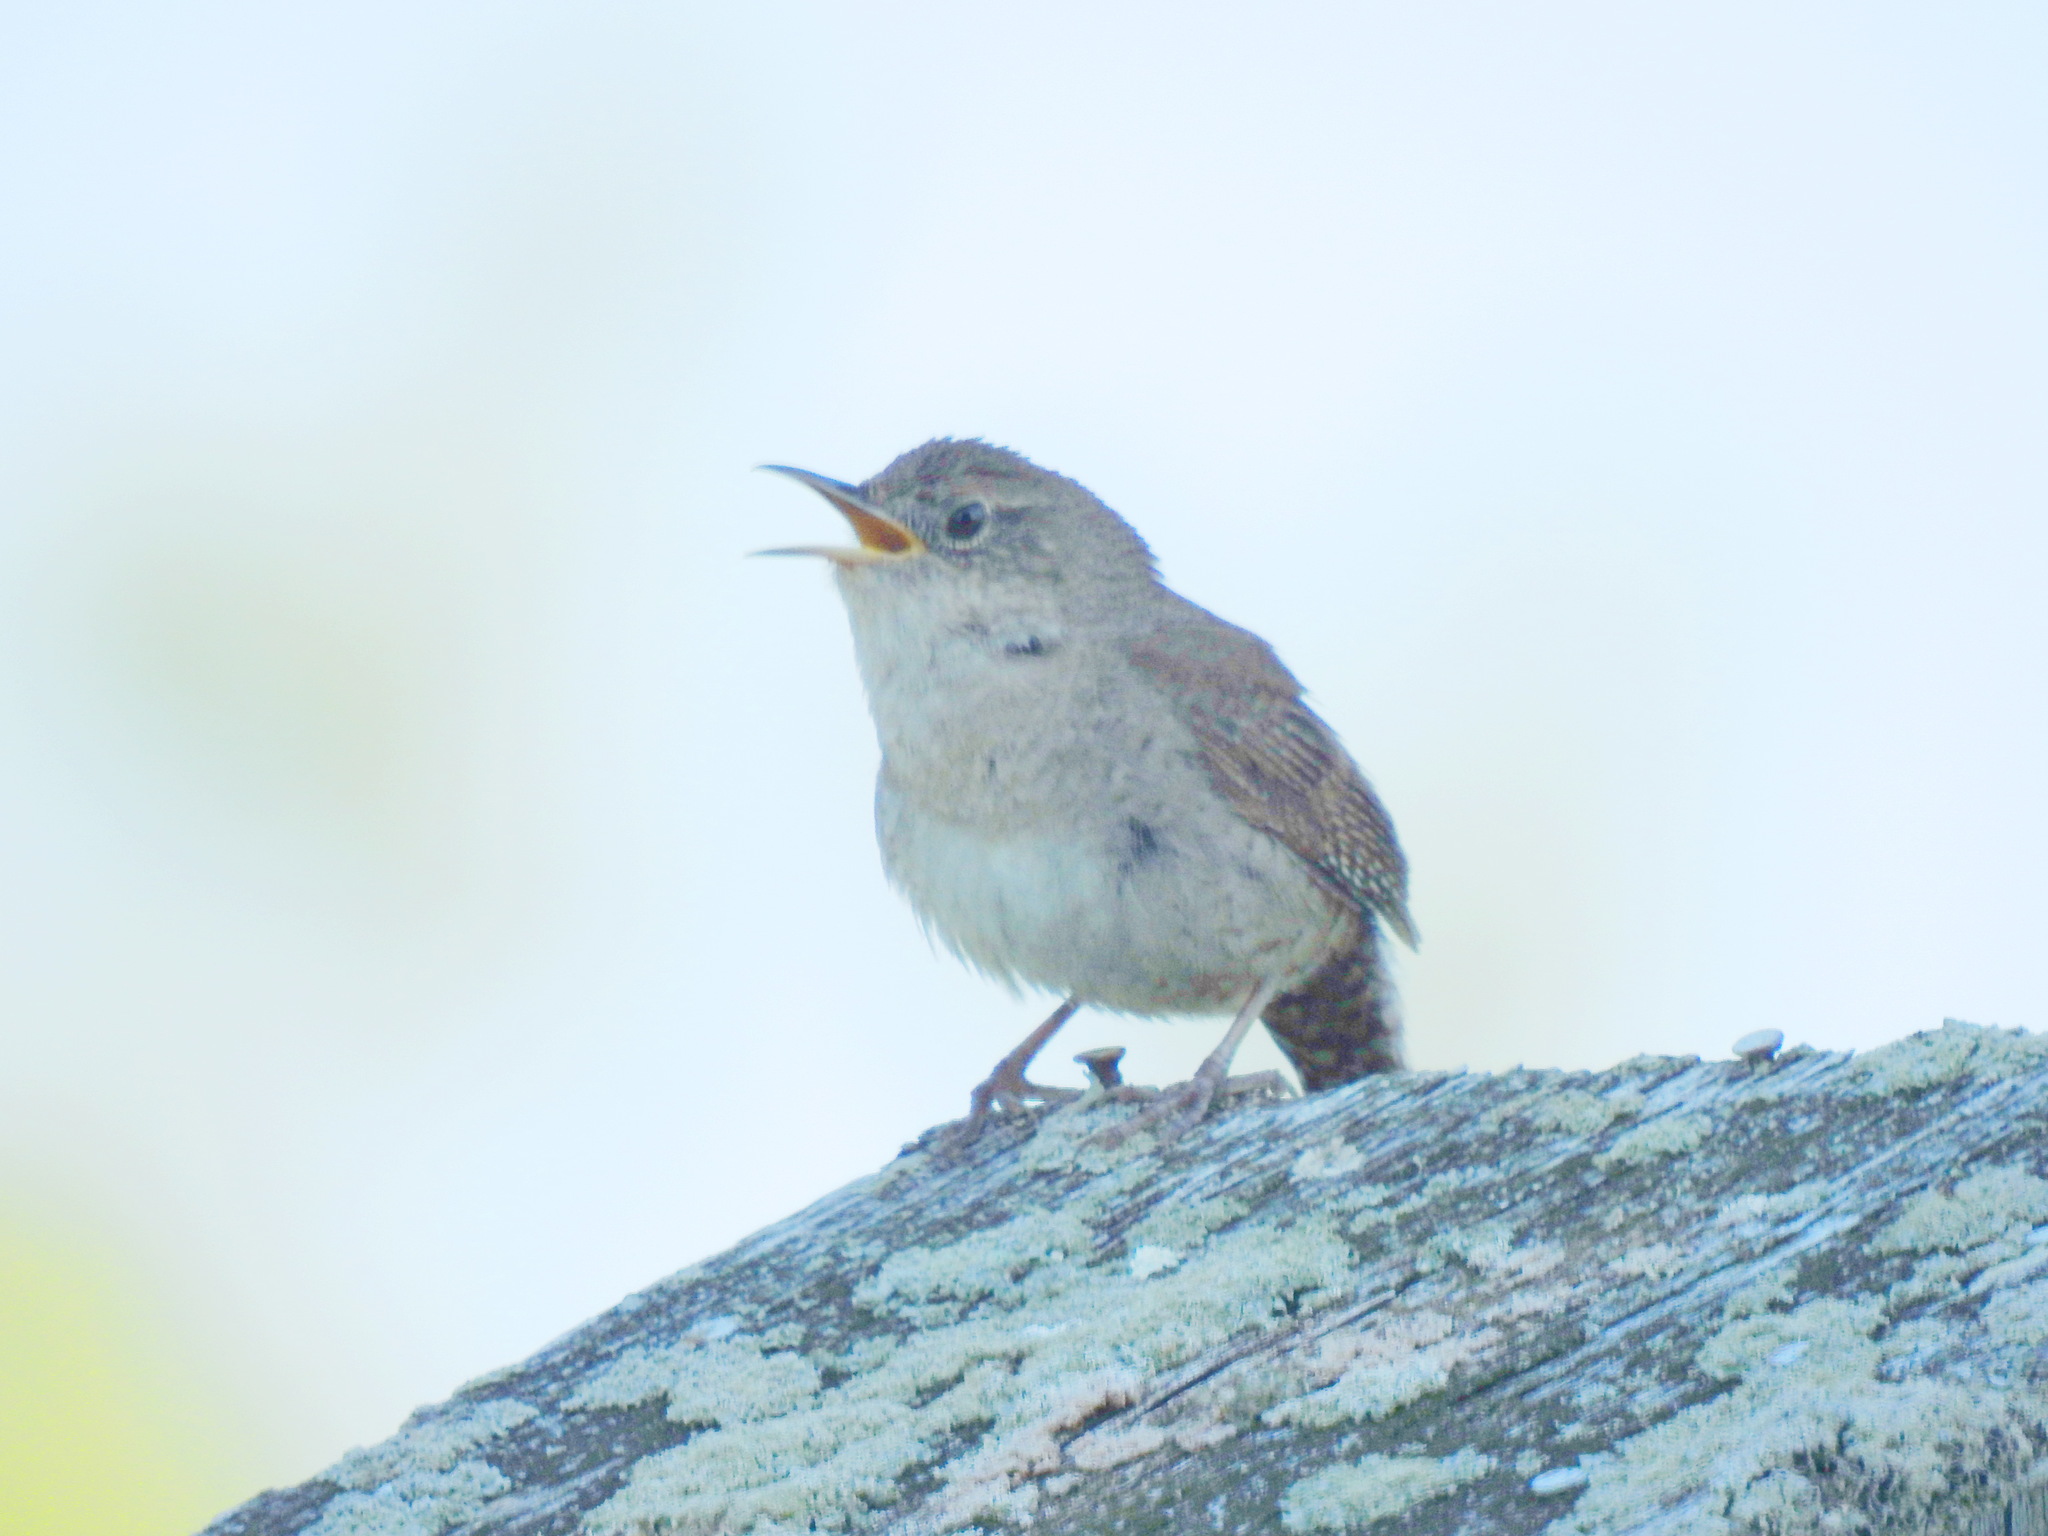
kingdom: Animalia
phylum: Chordata
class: Aves
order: Passeriformes
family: Troglodytidae
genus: Troglodytes
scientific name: Troglodytes aedon
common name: House wren
